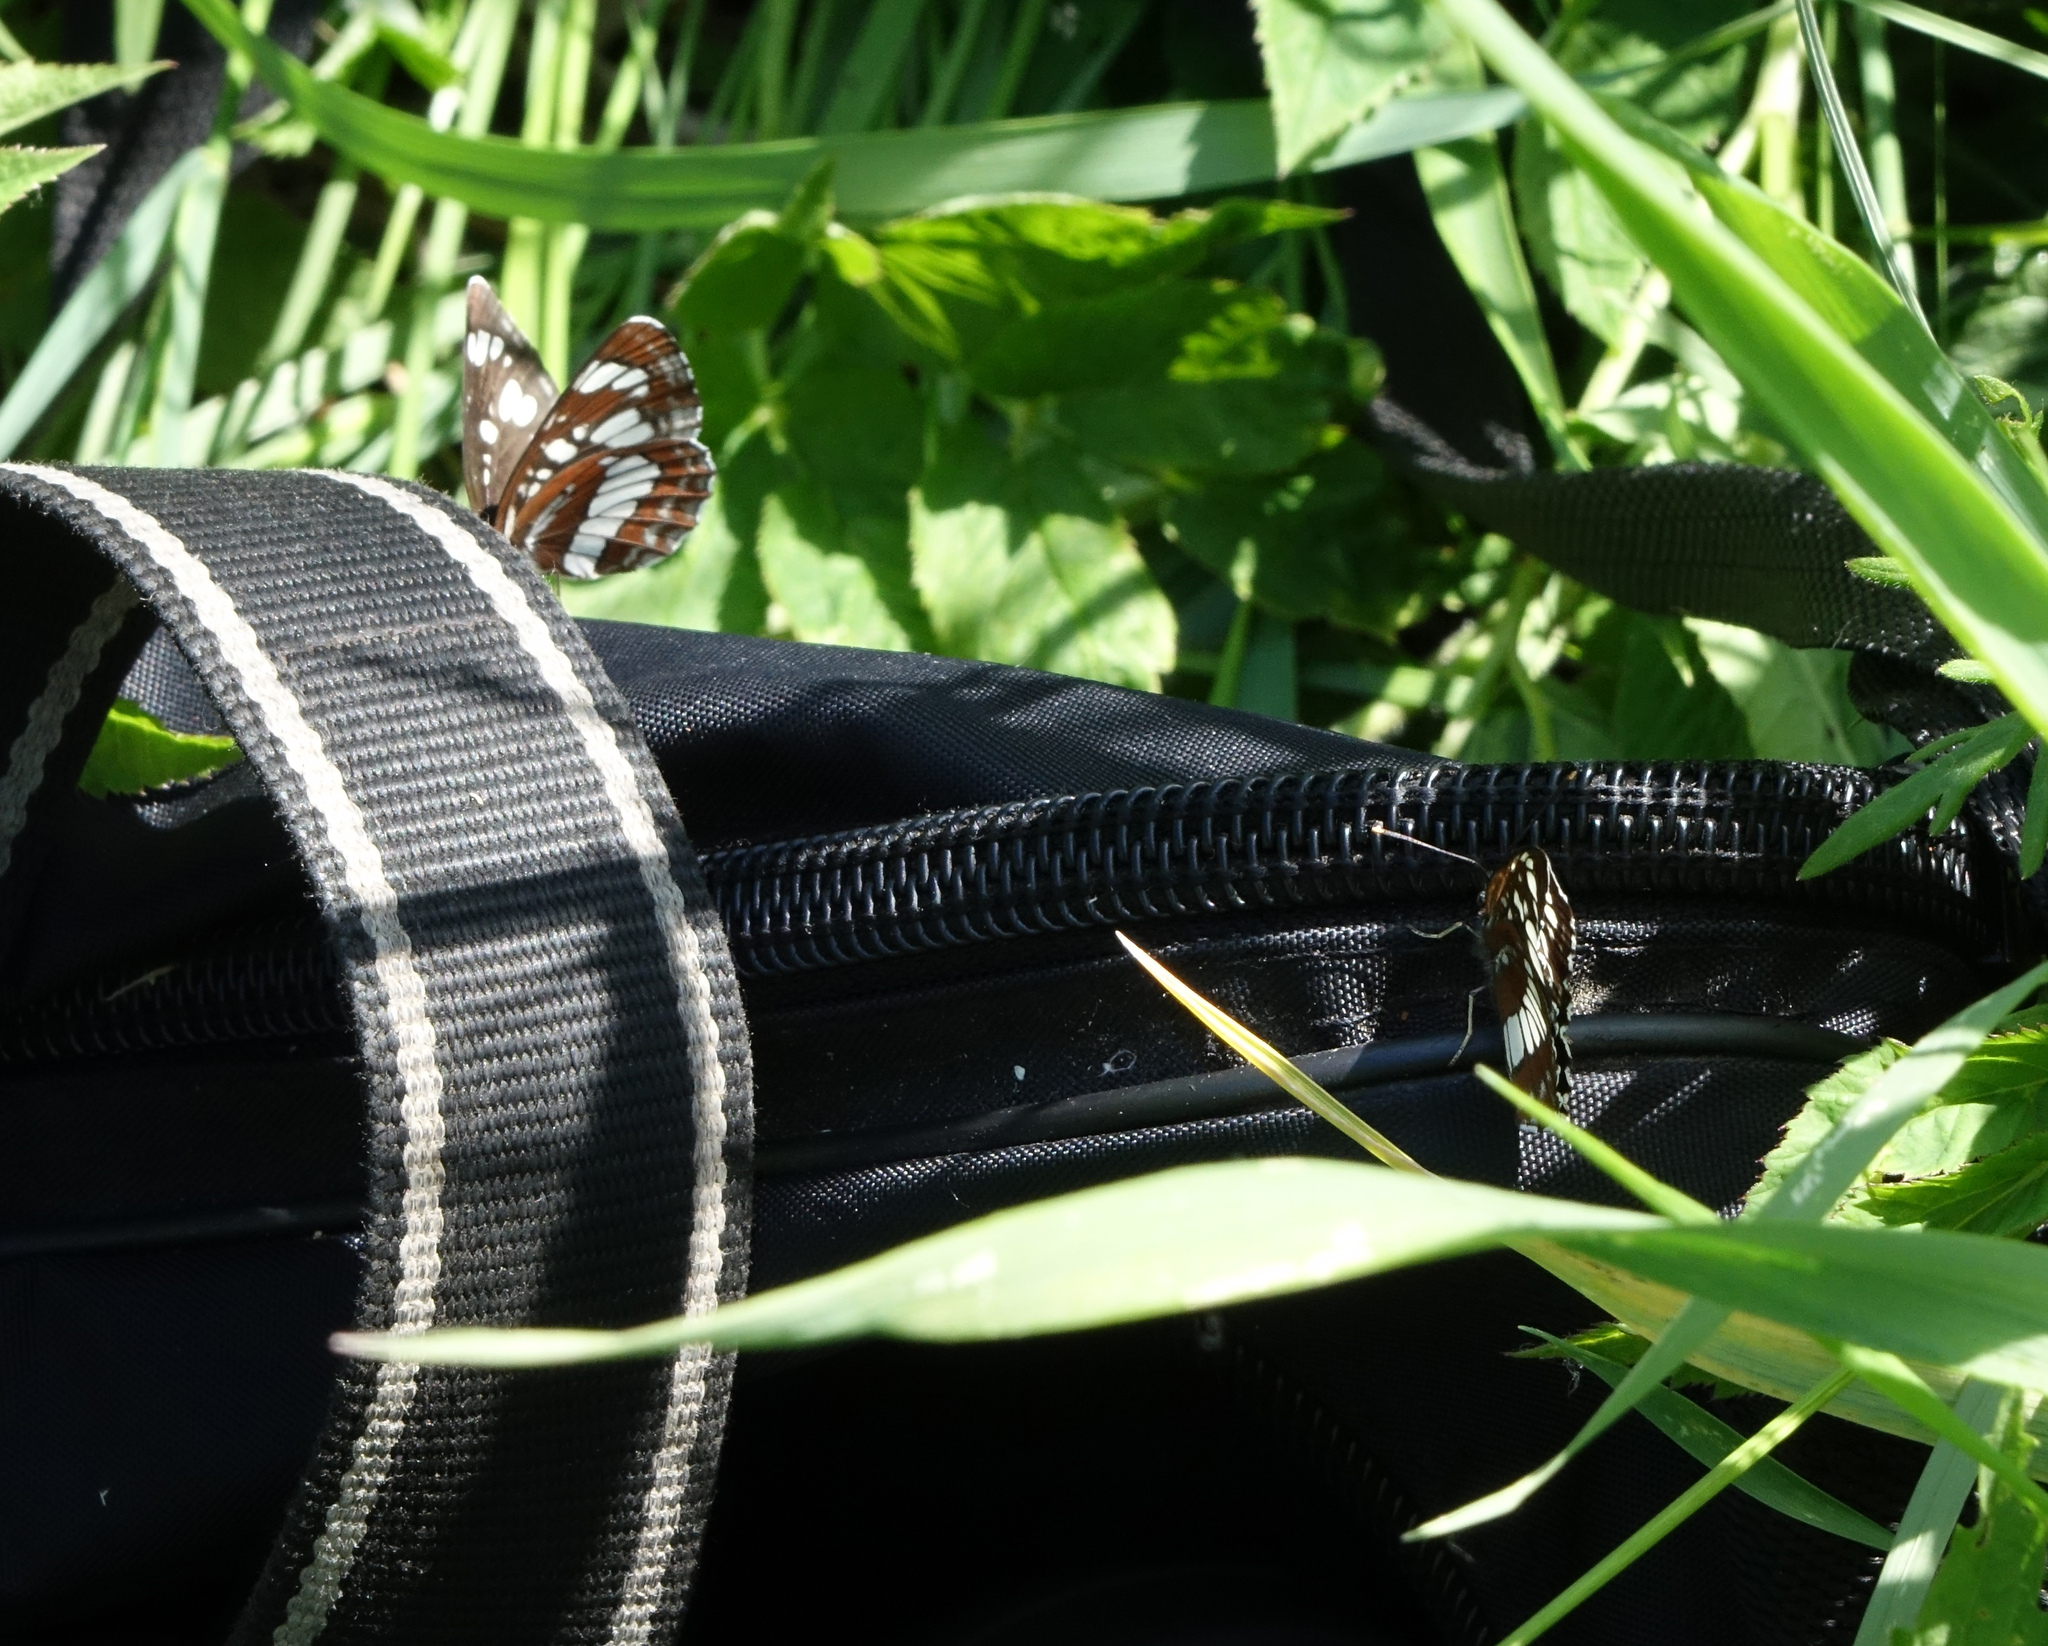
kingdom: Animalia
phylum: Arthropoda
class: Insecta
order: Lepidoptera
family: Nymphalidae
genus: Neptis
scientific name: Neptis rivularis
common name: Hungarian glider
